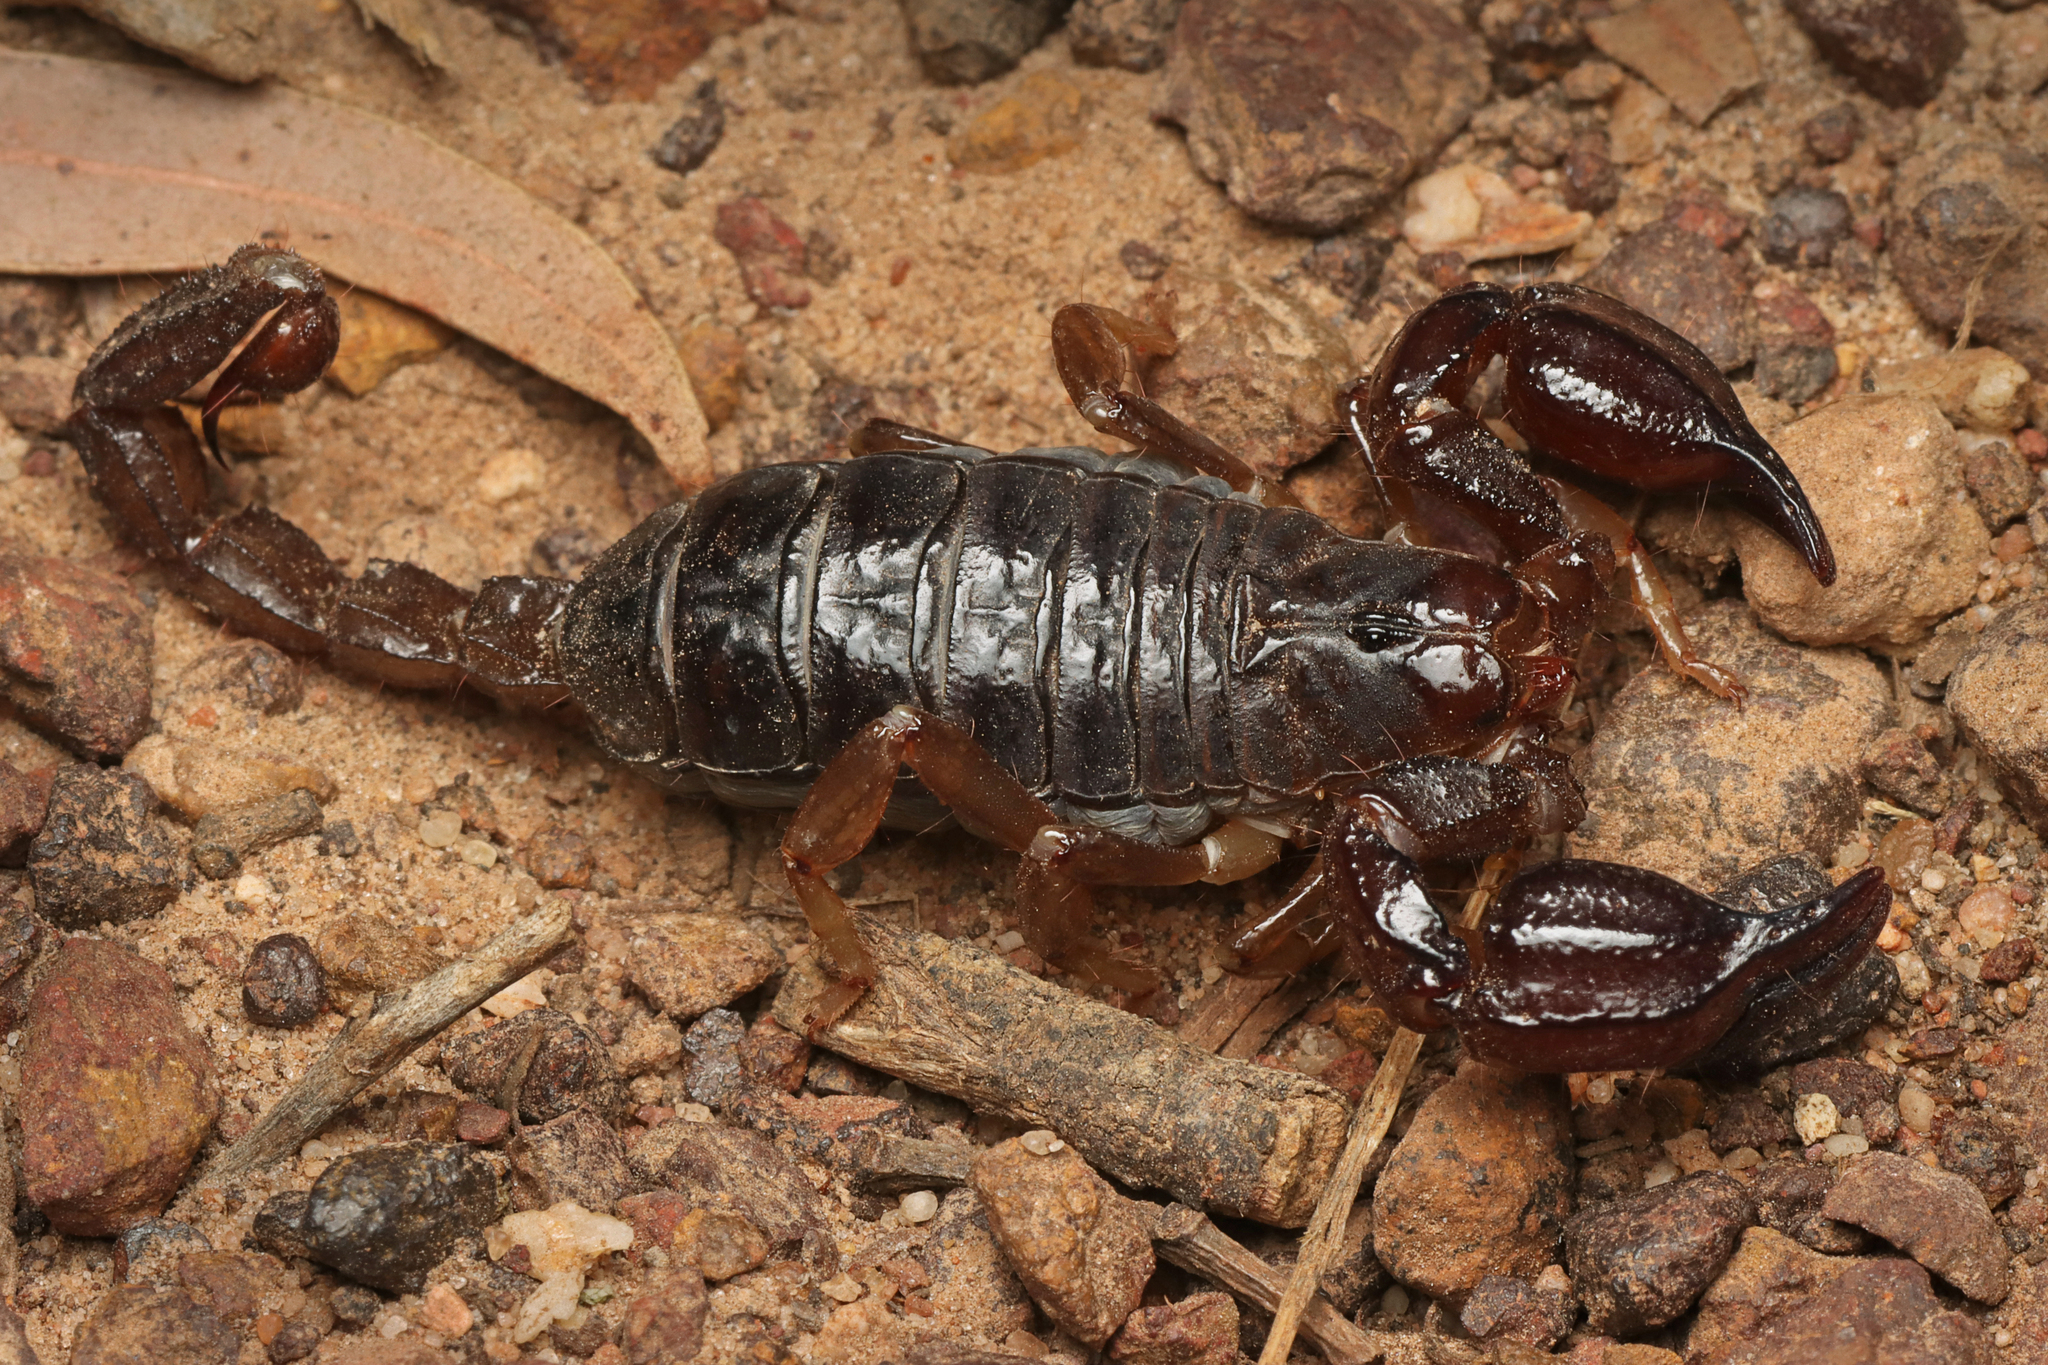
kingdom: Animalia
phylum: Arthropoda
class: Arachnida
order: Scorpiones
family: Scorpionidae
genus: Urodacus
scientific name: Urodacus manicatus
